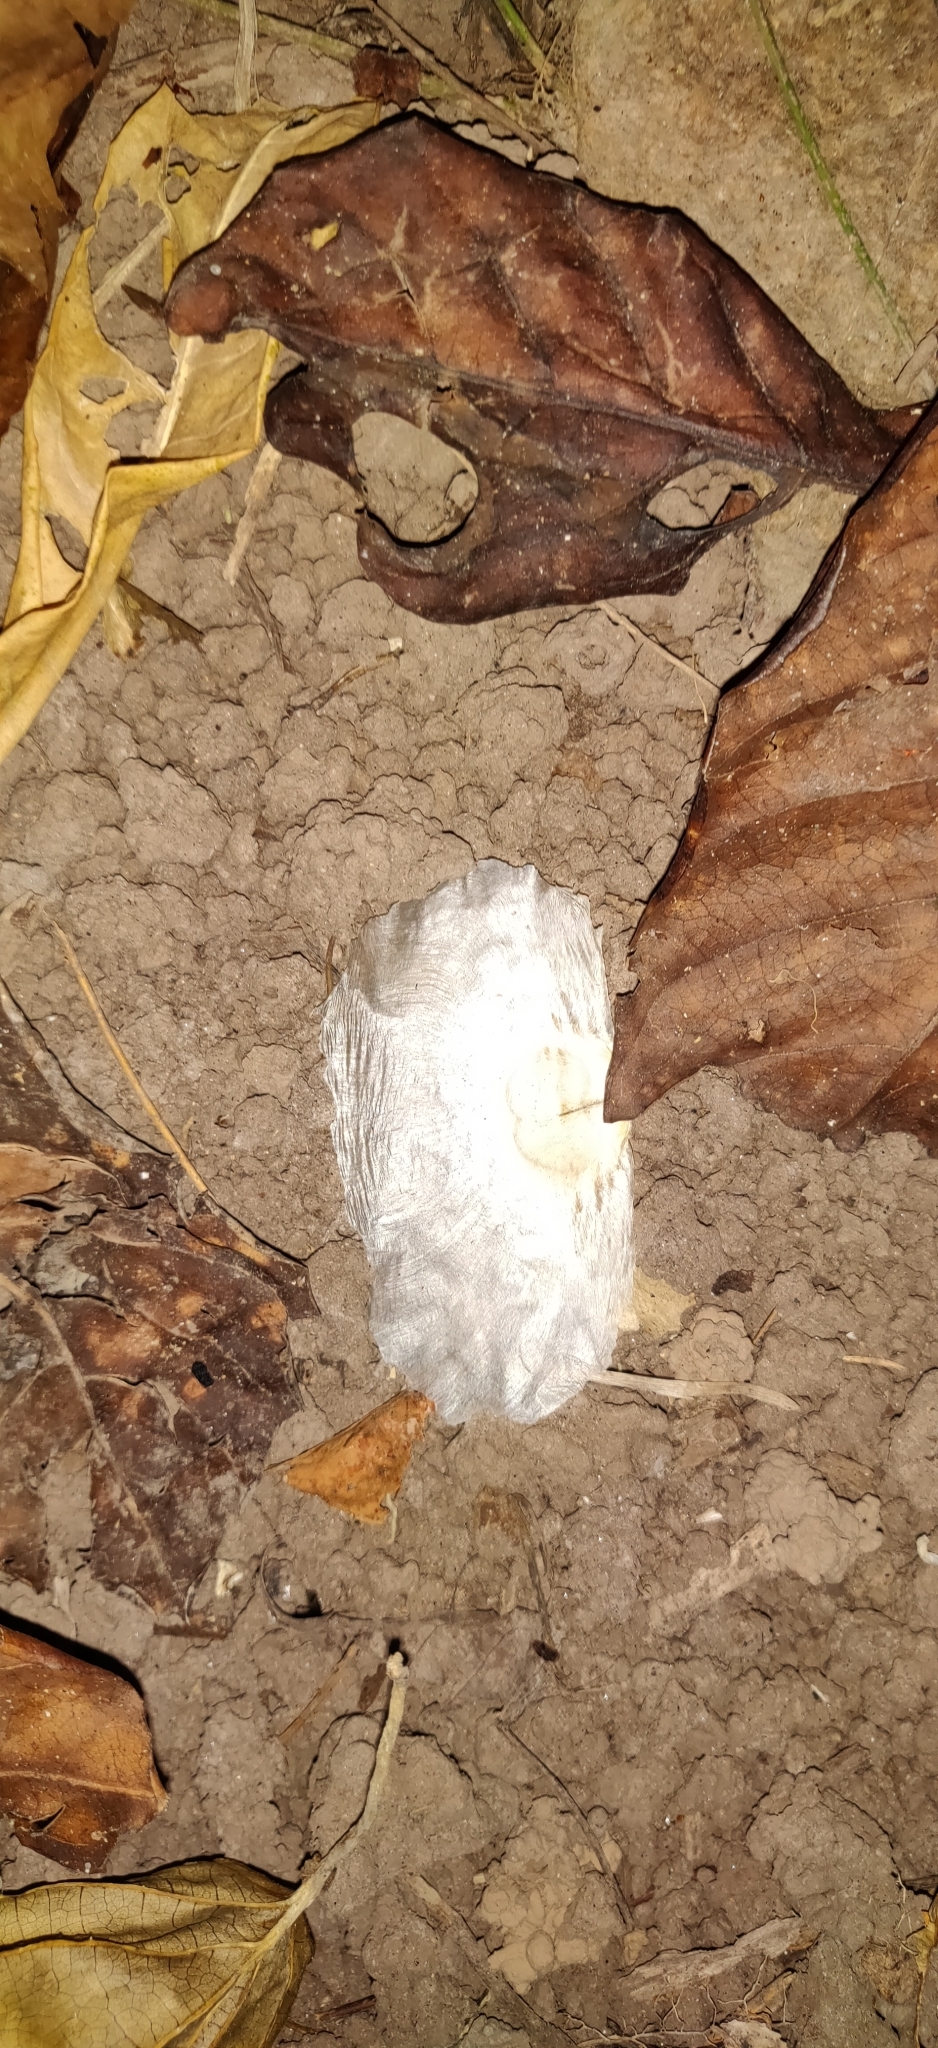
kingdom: Plantae
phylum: Tracheophyta
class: Magnoliopsida
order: Lamiales
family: Bignoniaceae
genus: Oroxylum
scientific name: Oroxylum indicum
